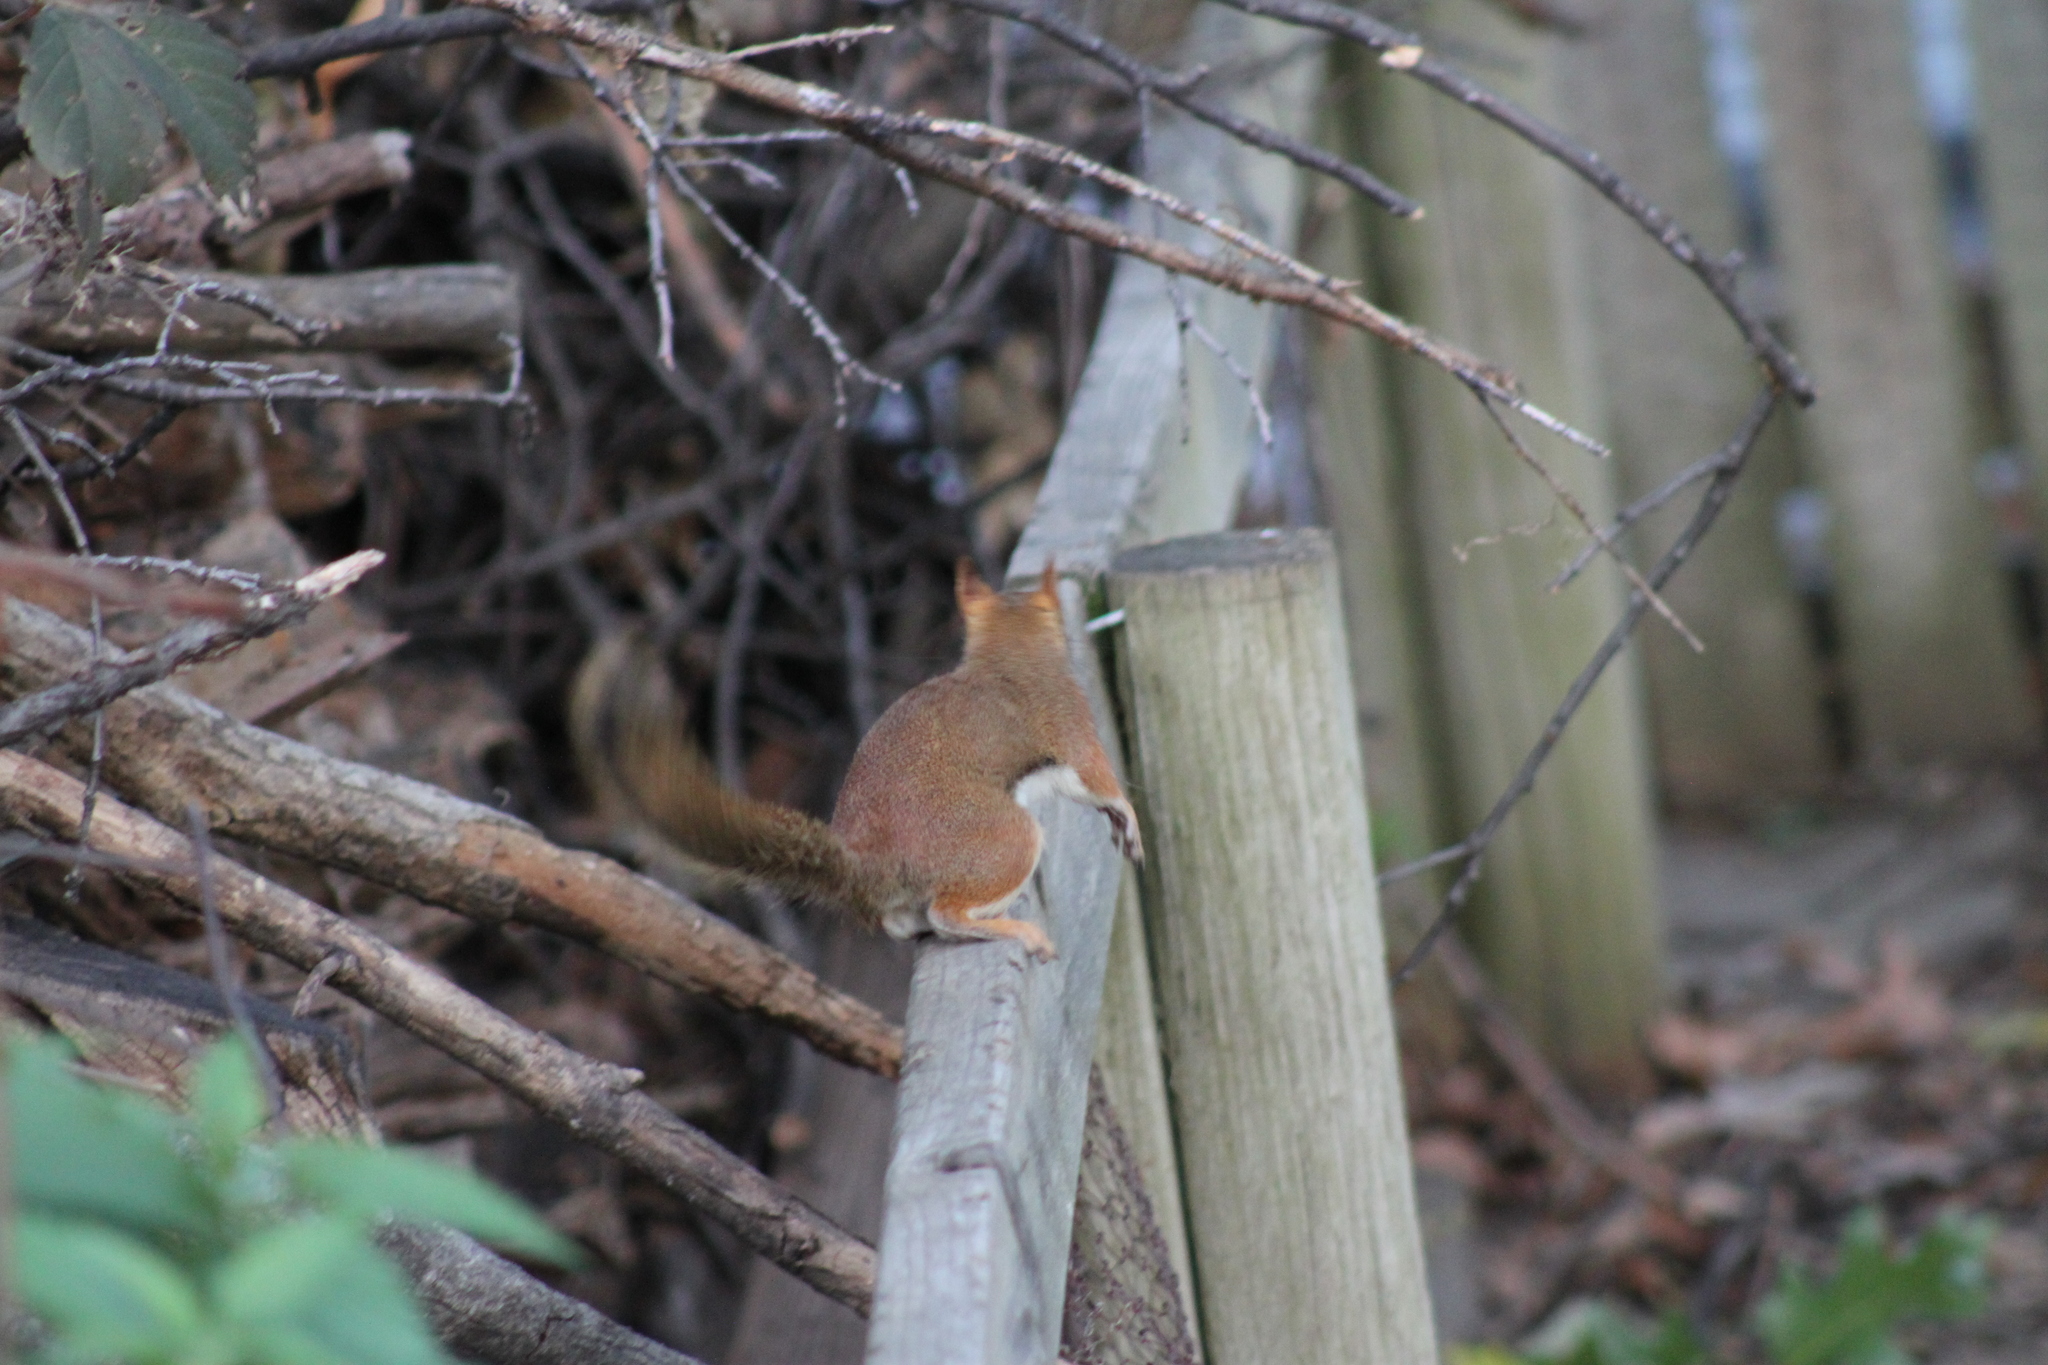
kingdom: Animalia
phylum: Chordata
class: Mammalia
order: Rodentia
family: Sciuridae
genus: Tamiasciurus
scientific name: Tamiasciurus hudsonicus
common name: Red squirrel
